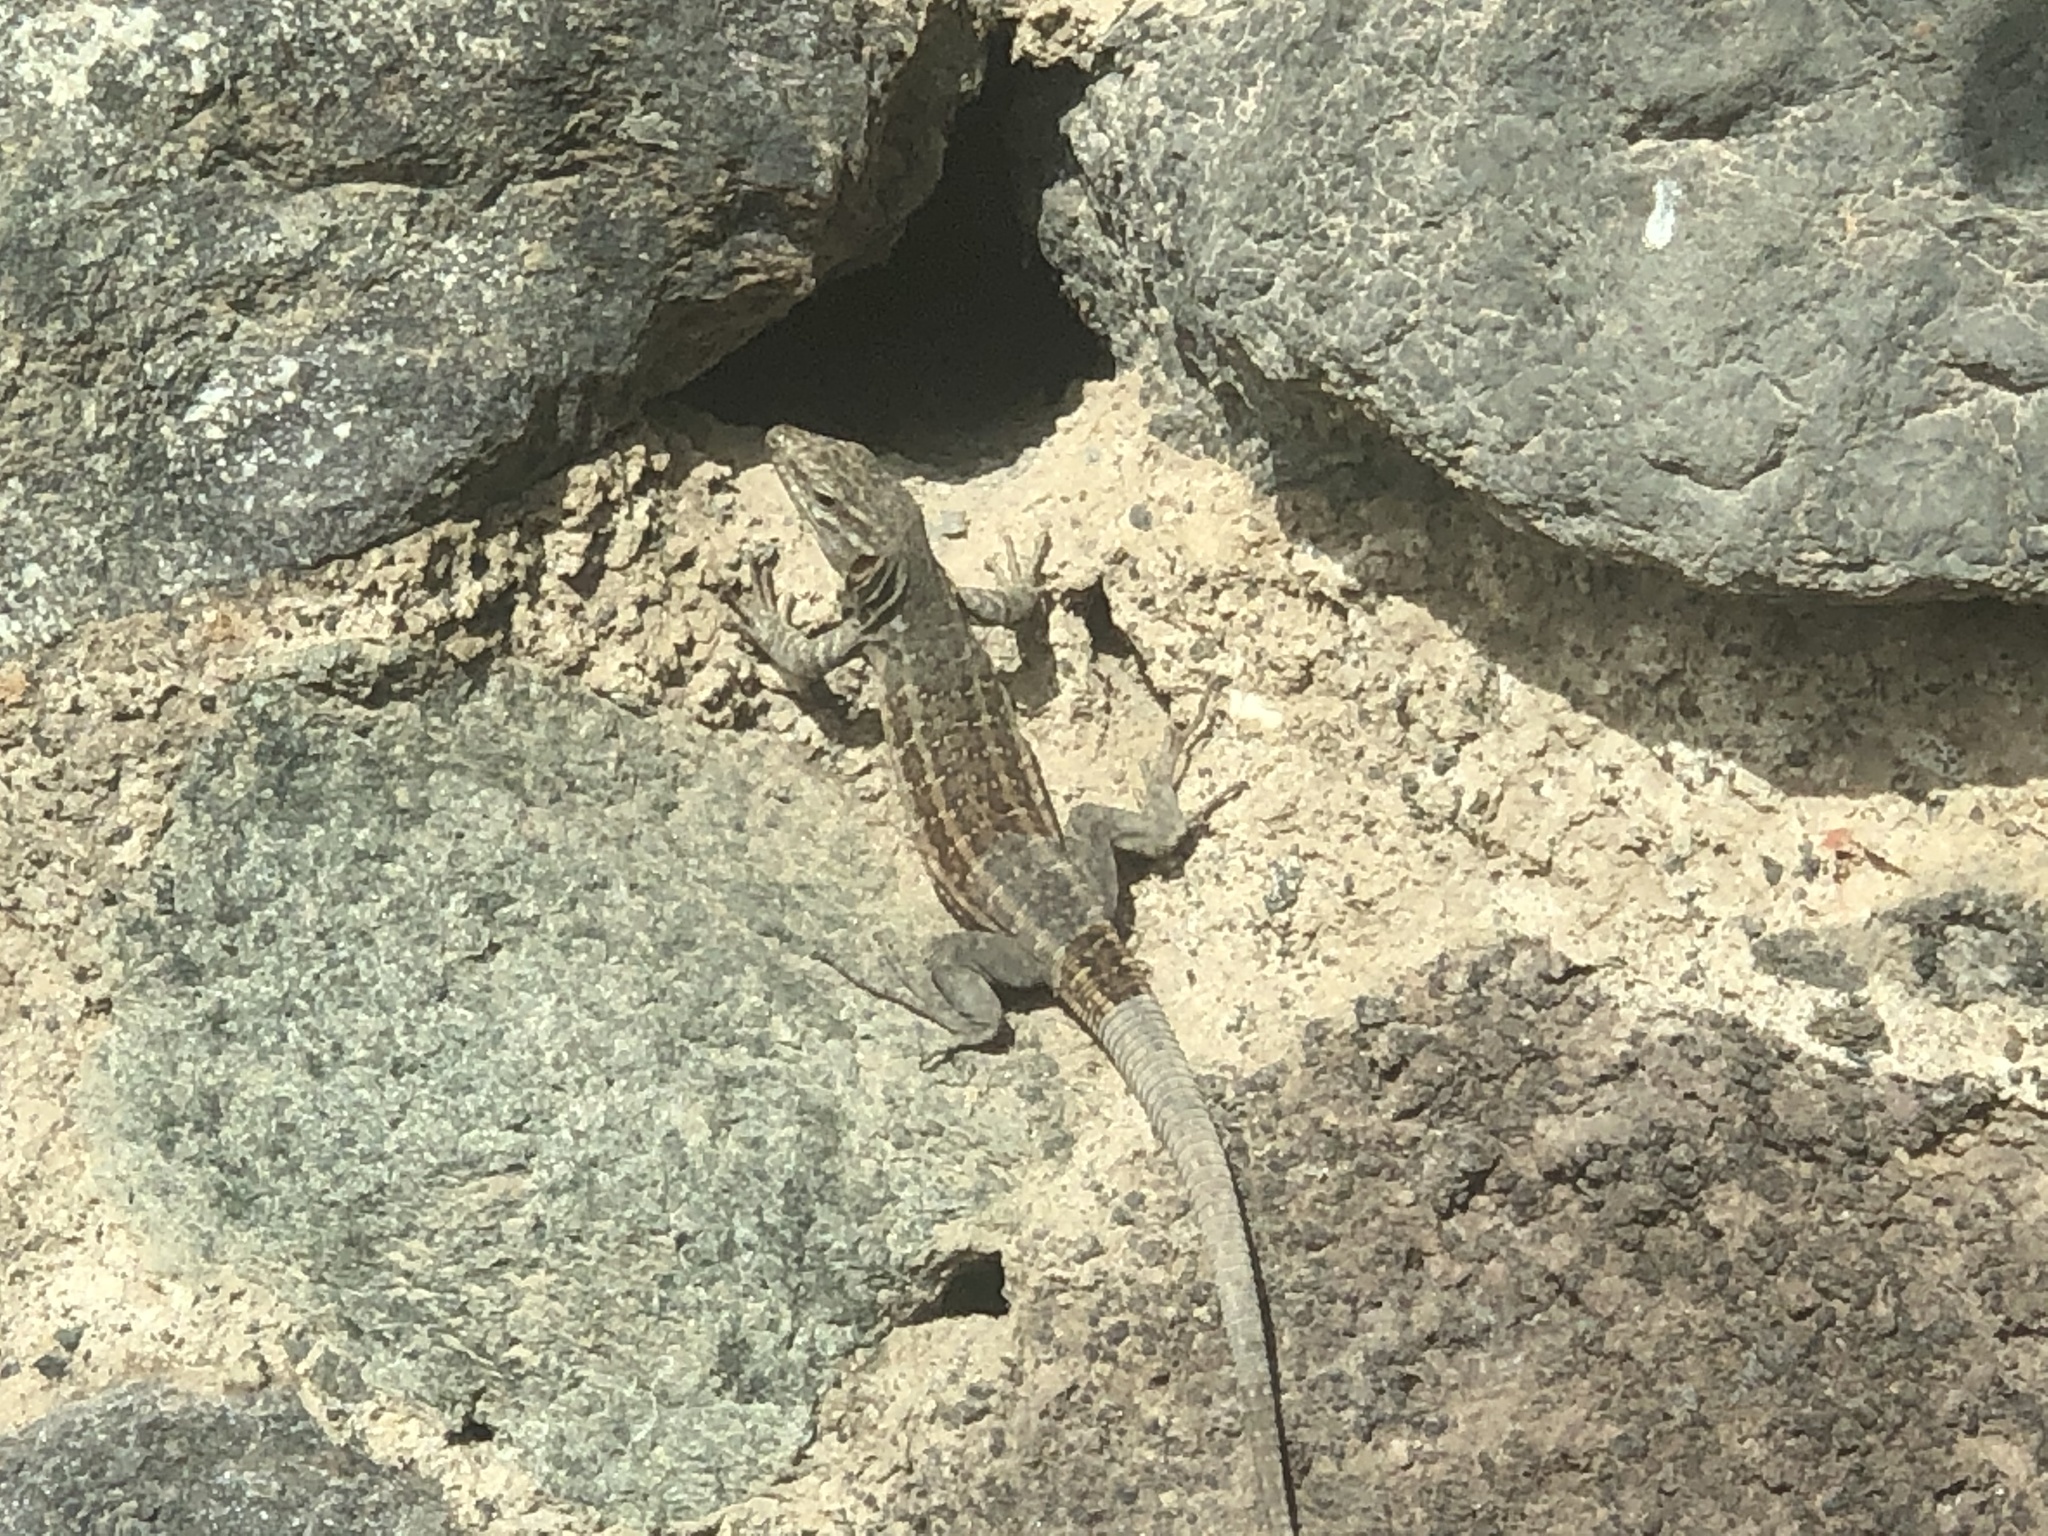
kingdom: Animalia
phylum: Chordata
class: Squamata
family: Lacertidae
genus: Gallotia
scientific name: Gallotia stehlini
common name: Gran canaria giant lizard
